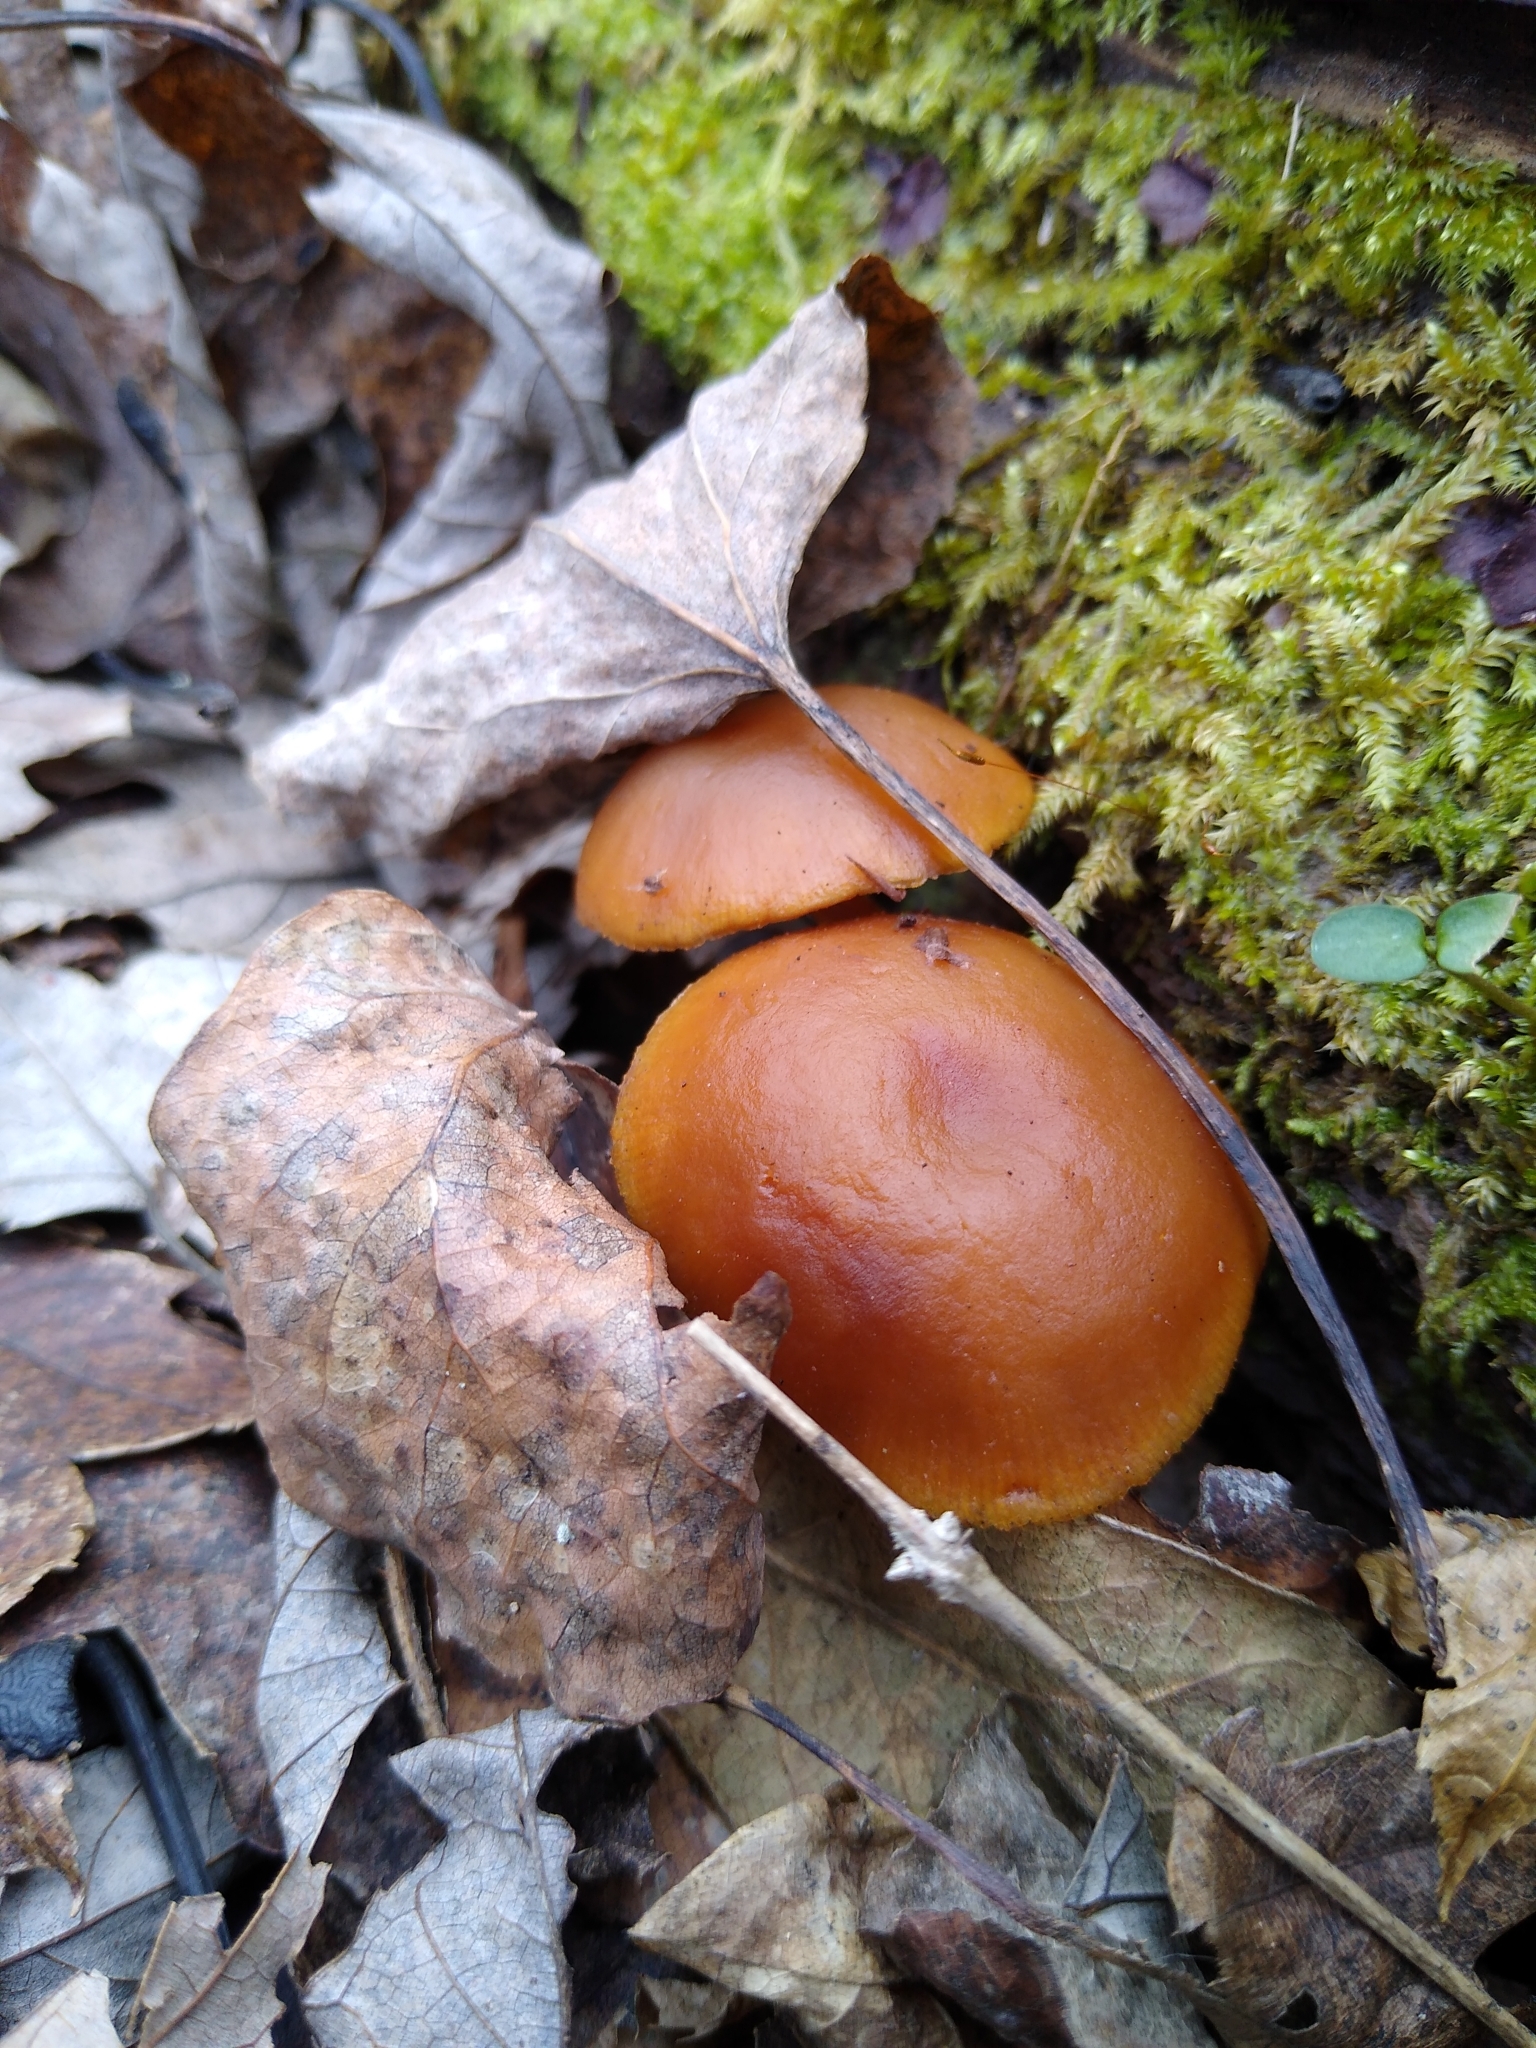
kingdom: Fungi
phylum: Basidiomycota
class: Agaricomycetes
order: Agaricales
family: Hymenogastraceae
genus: Galerina
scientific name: Galerina marginata
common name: Funeral bell
